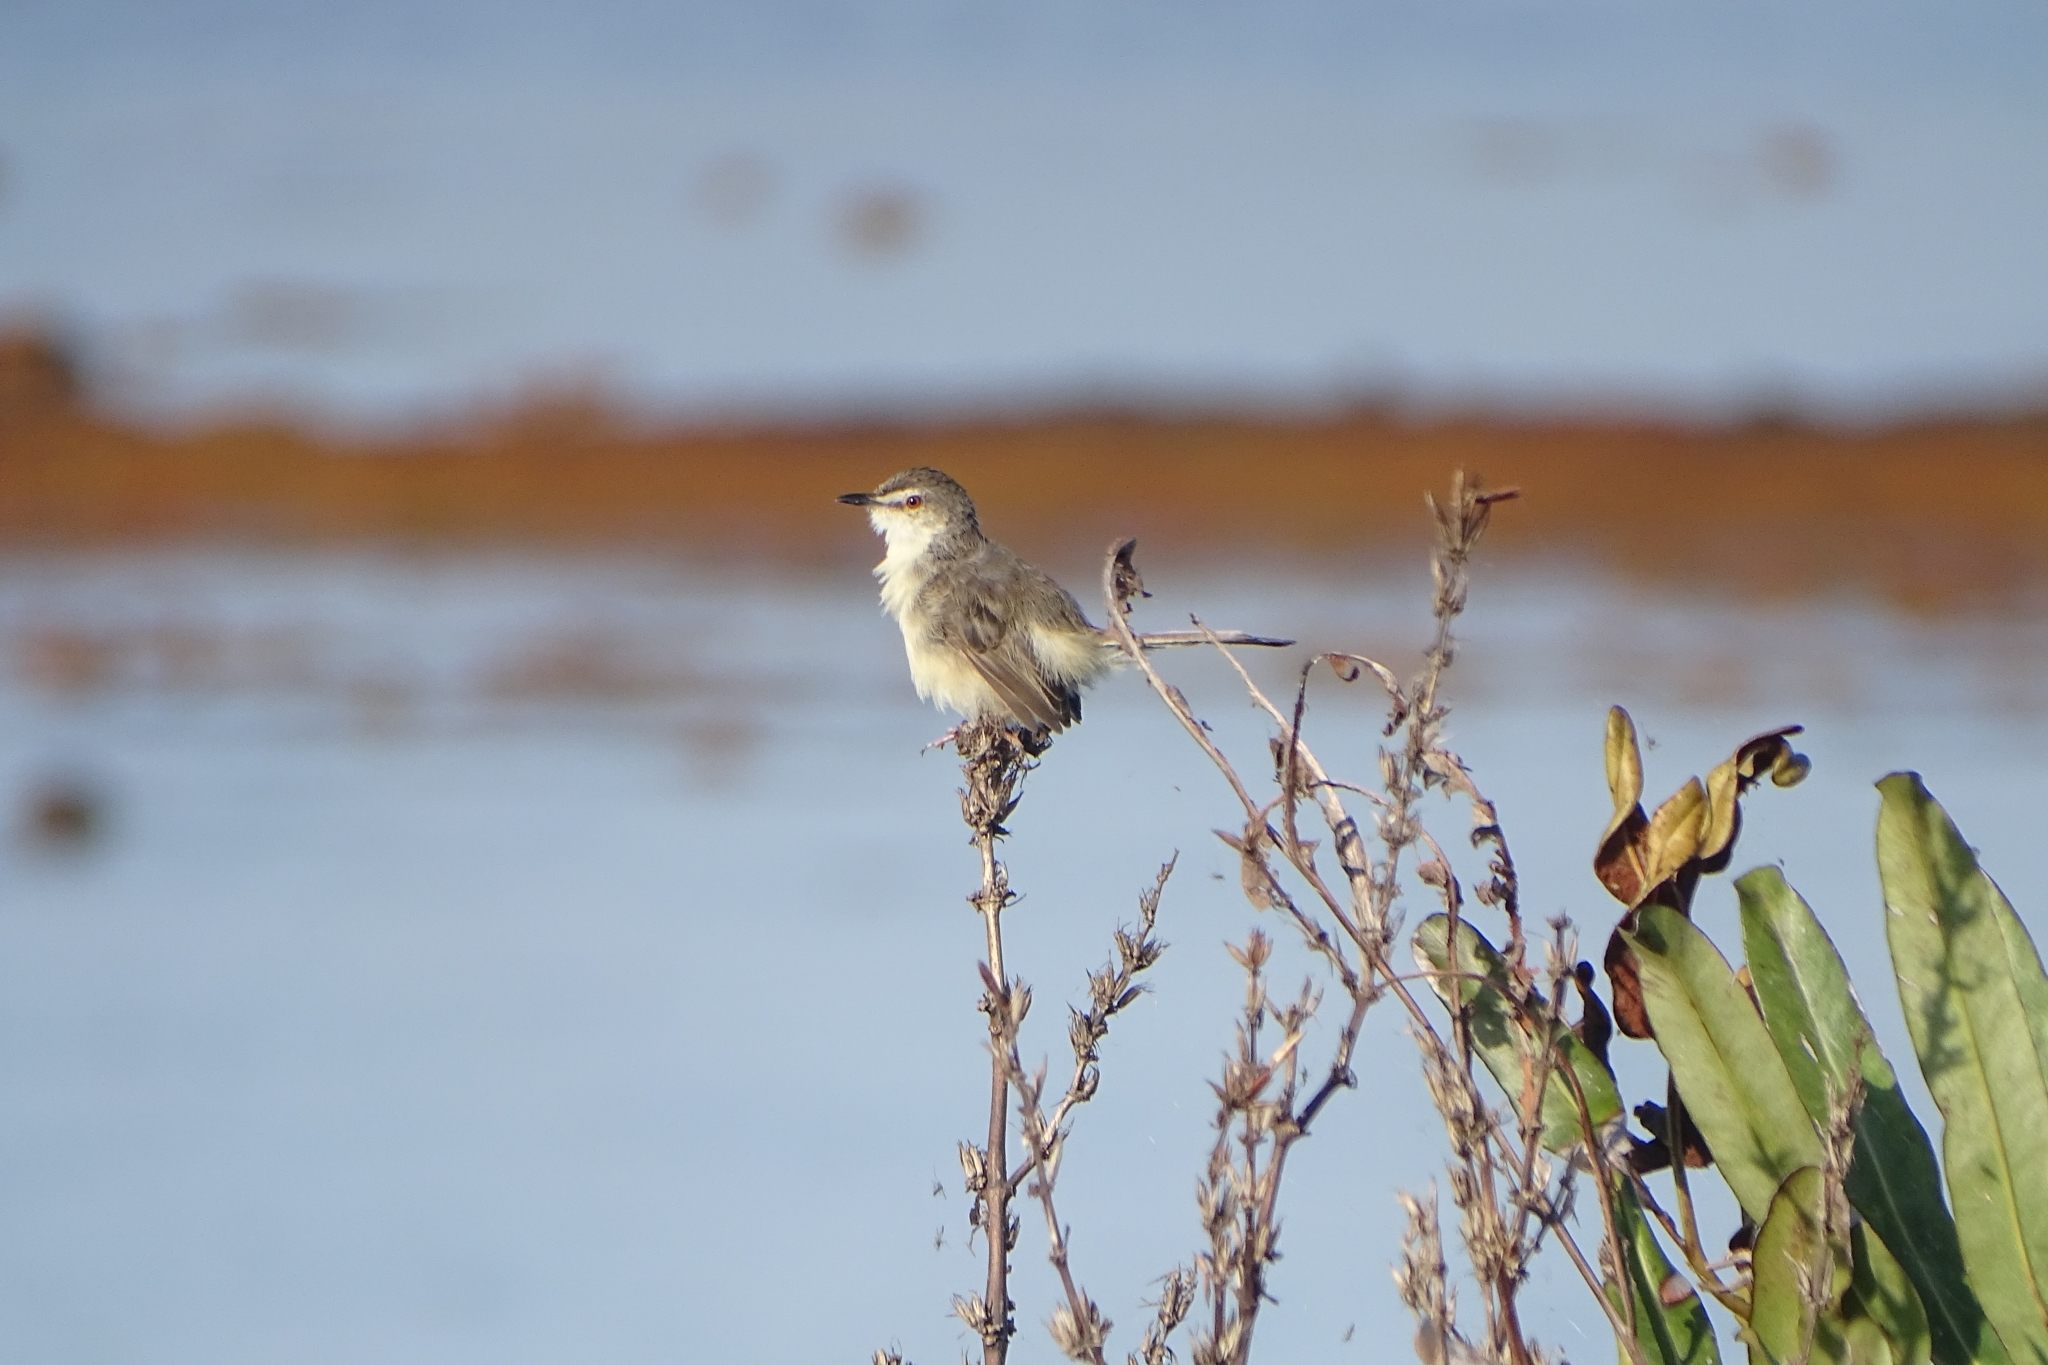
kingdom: Animalia
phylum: Chordata
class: Aves
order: Passeriformes
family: Cisticolidae
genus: Prinia
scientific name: Prinia inornata
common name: Plain prinia
